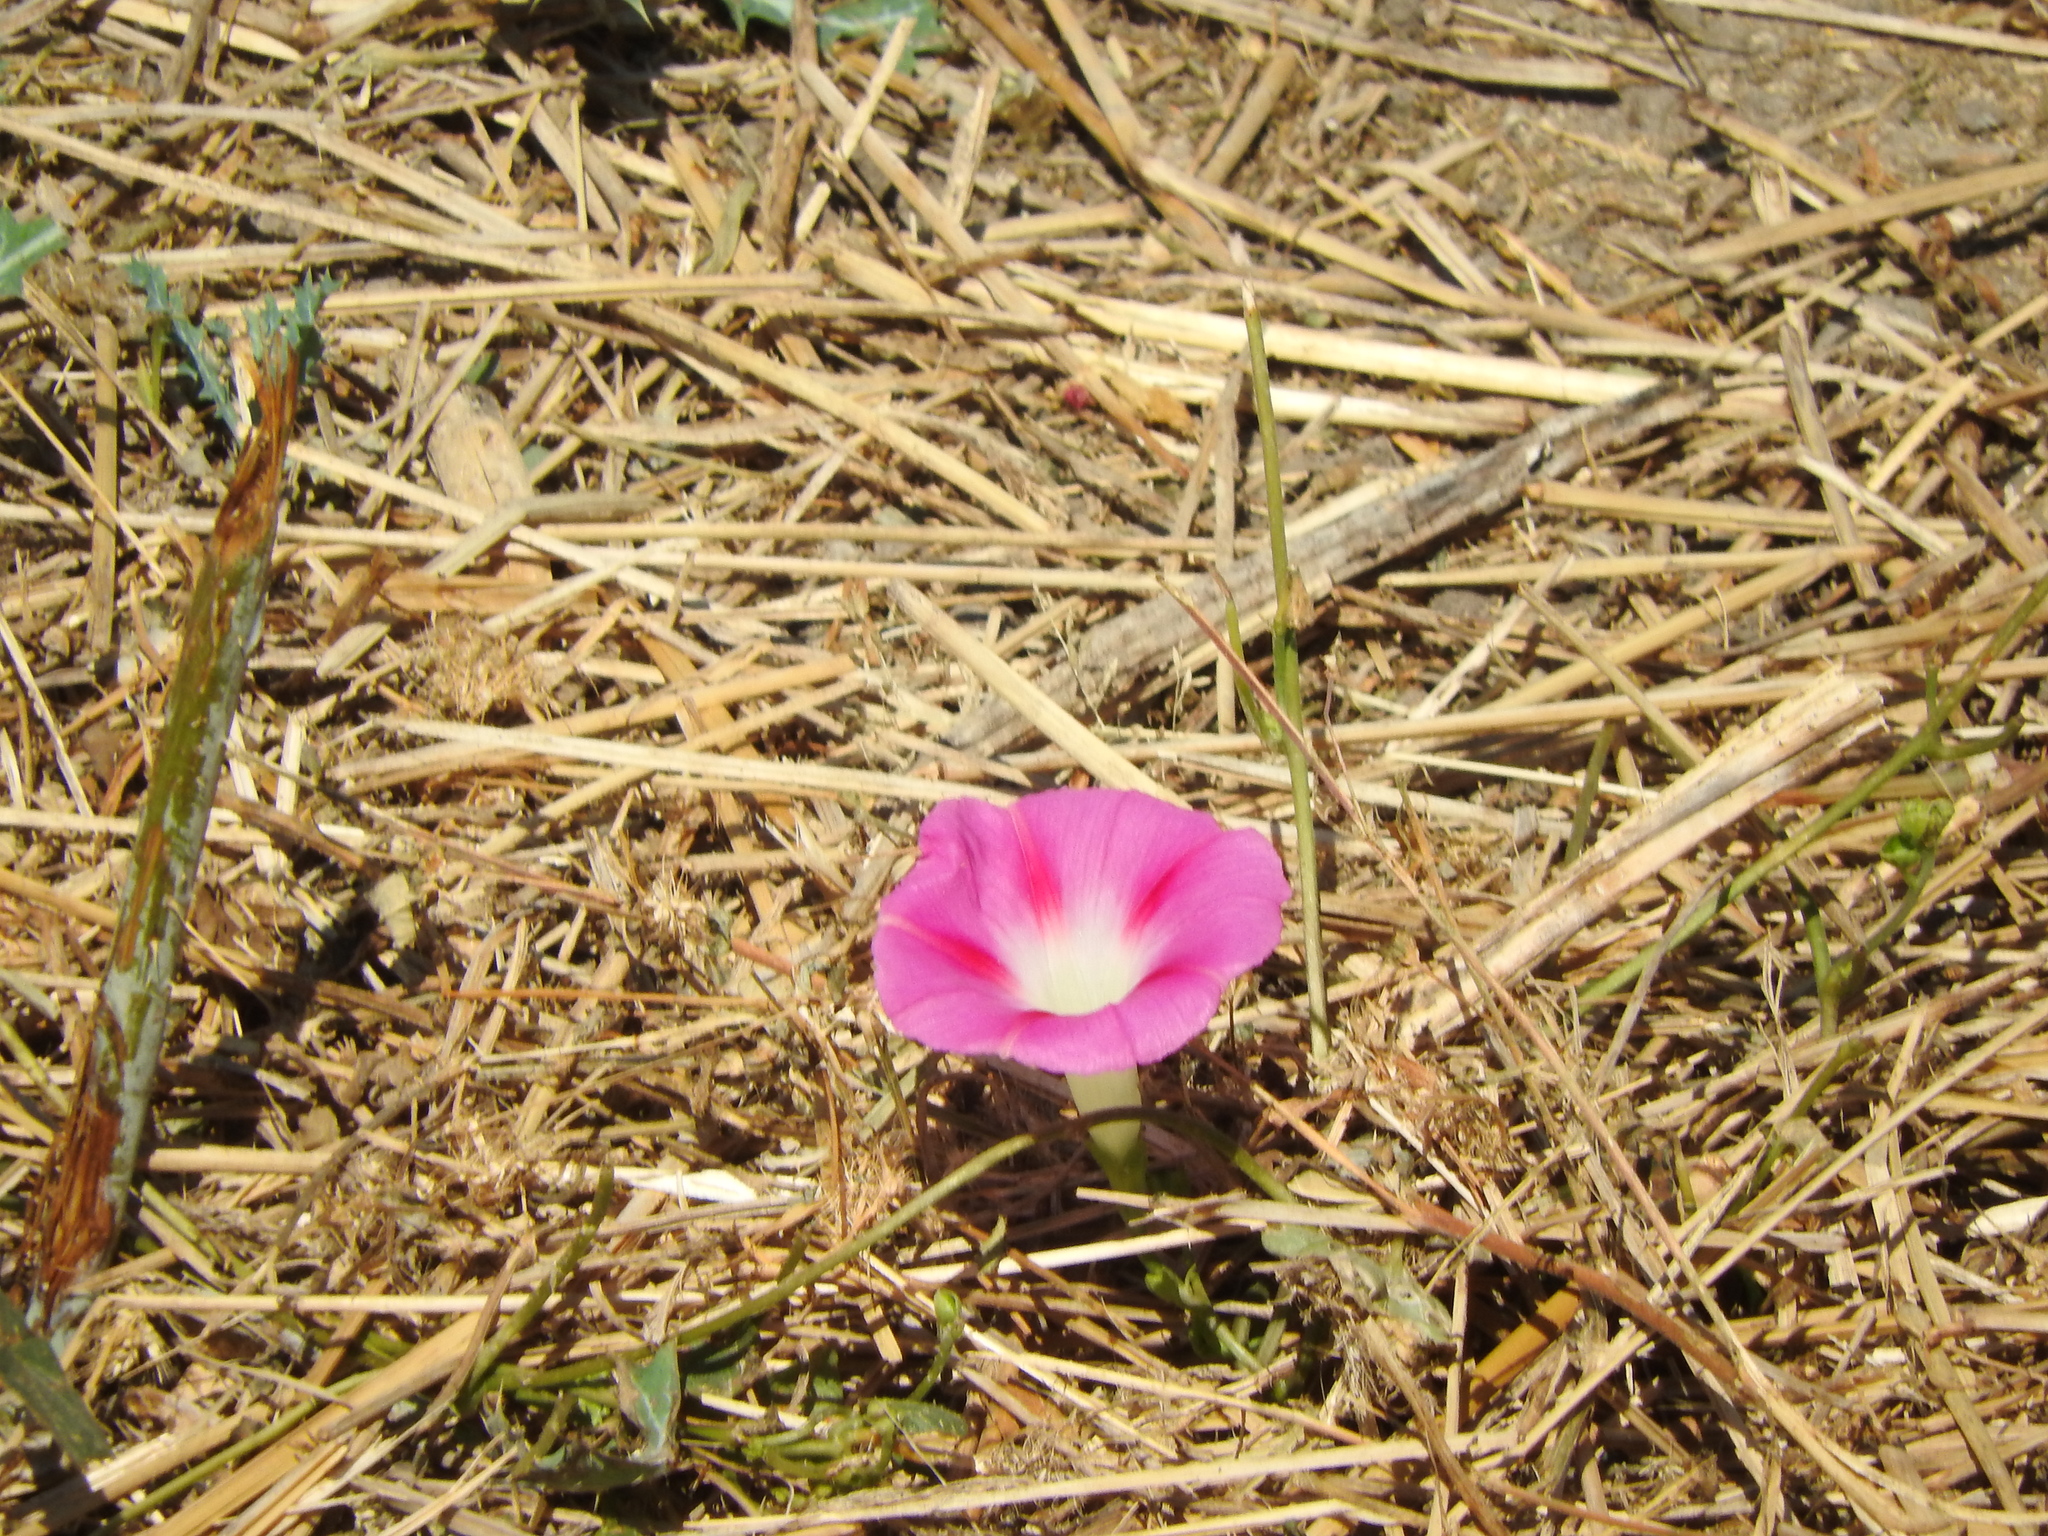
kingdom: Plantae
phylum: Tracheophyta
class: Magnoliopsida
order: Solanales
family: Convolvulaceae
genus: Ipomoea
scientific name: Ipomoea purpurea
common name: Common morning-glory
